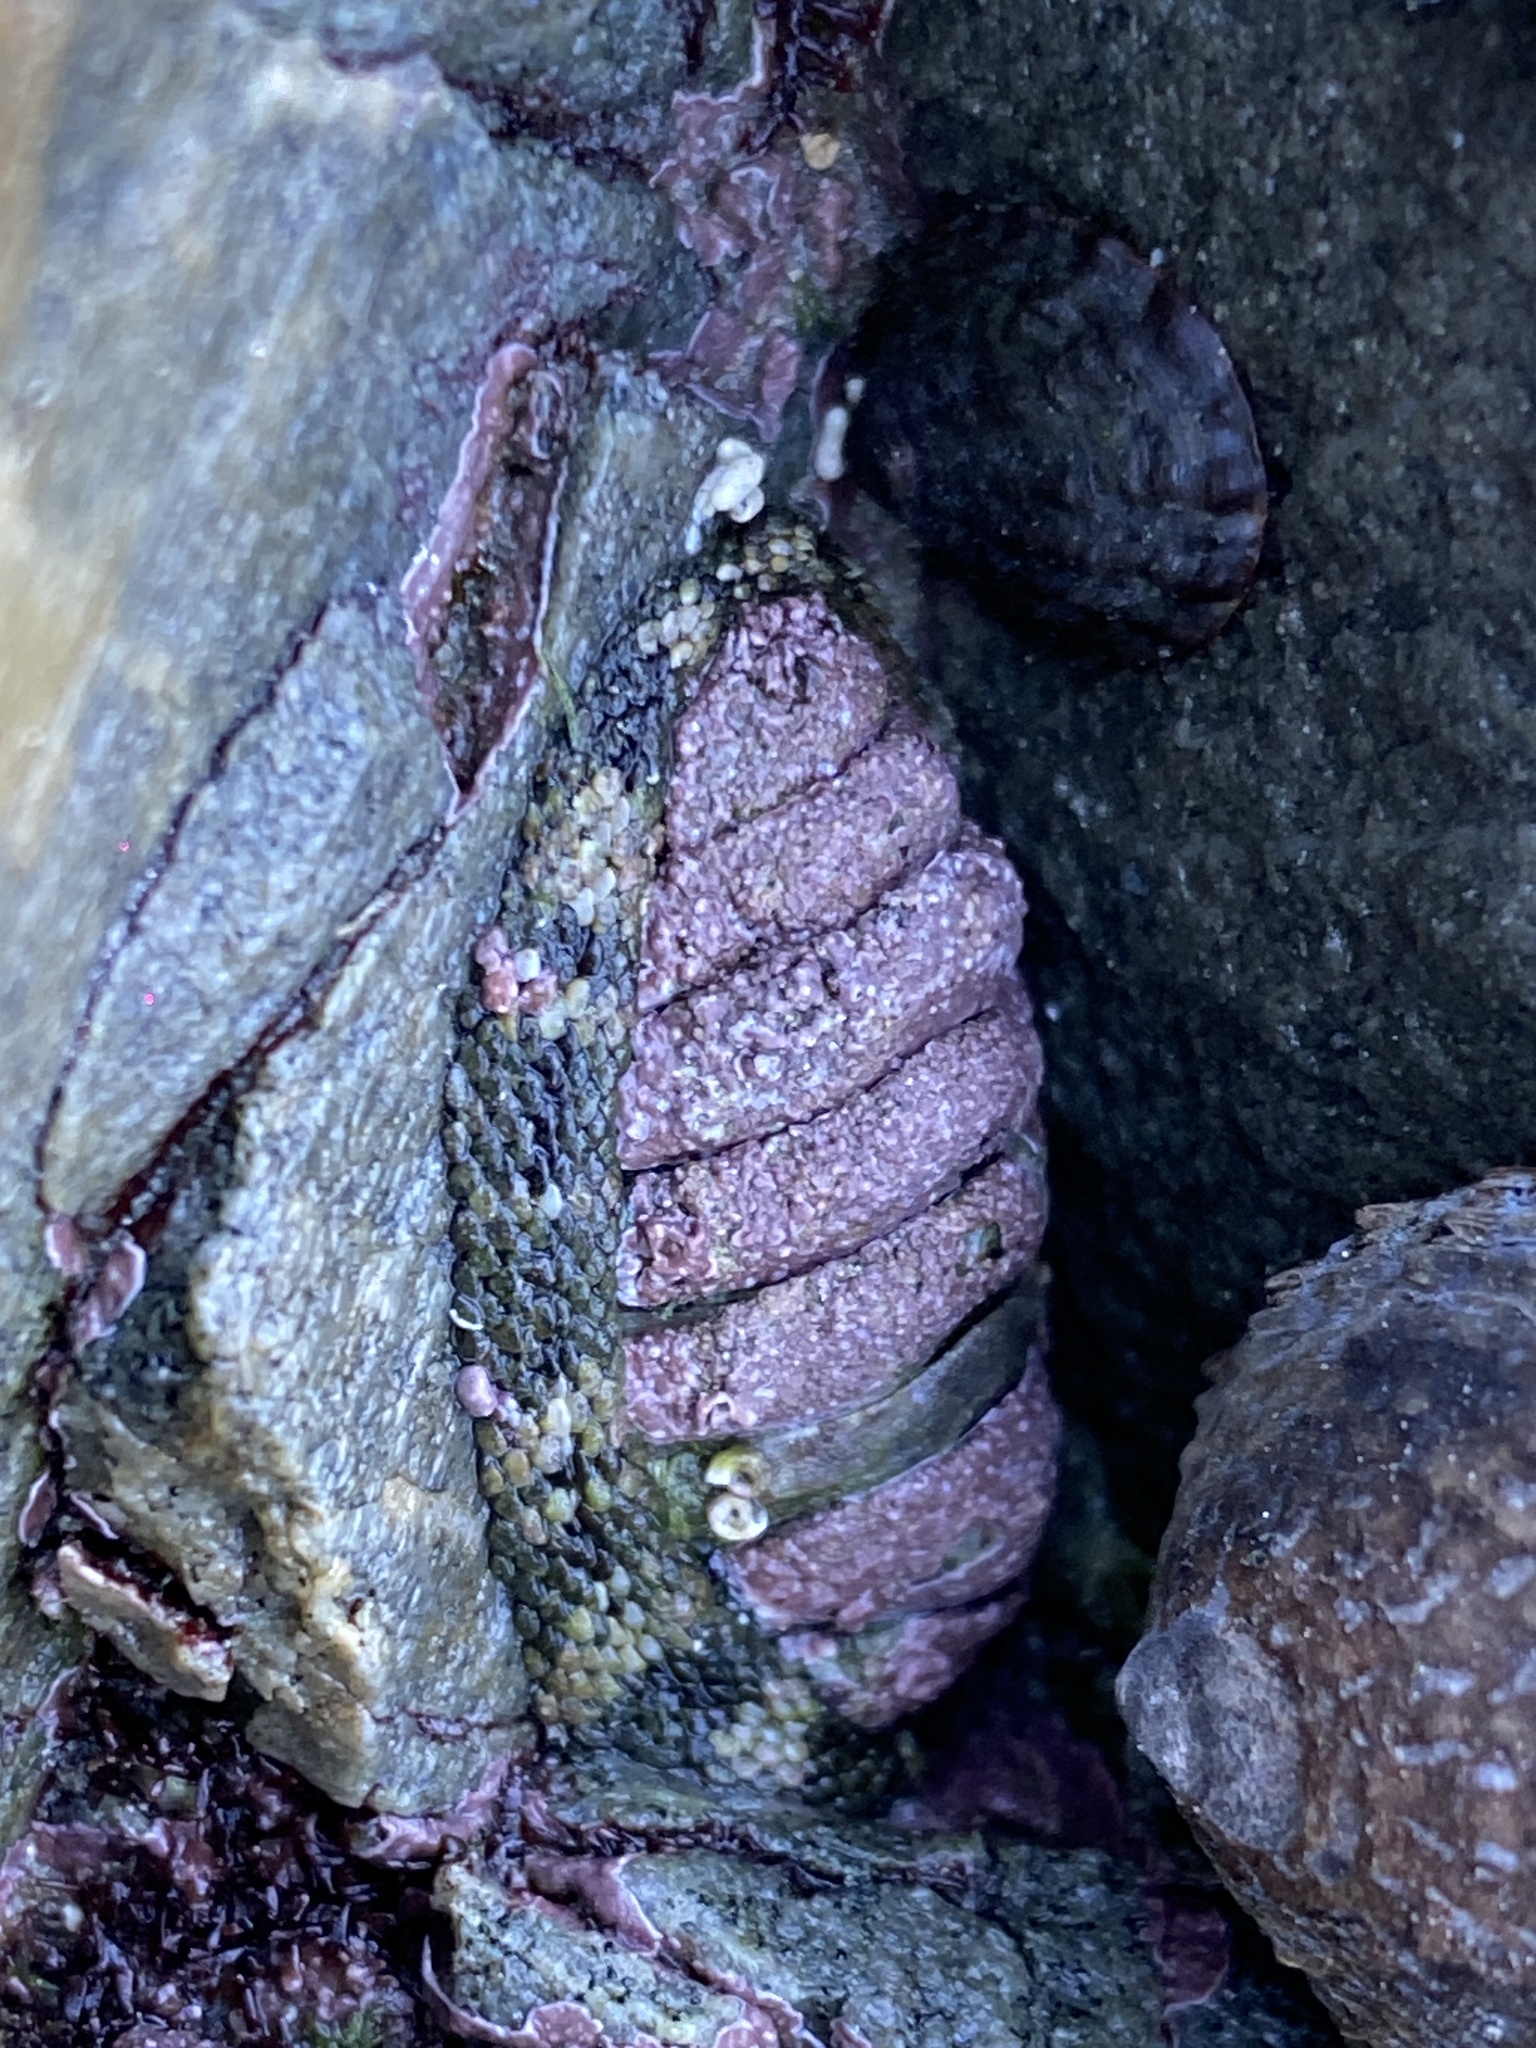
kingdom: Animalia
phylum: Mollusca
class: Polyplacophora
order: Chitonida
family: Chitonidae
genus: Sypharochiton
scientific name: Sypharochiton pelliserpentis
